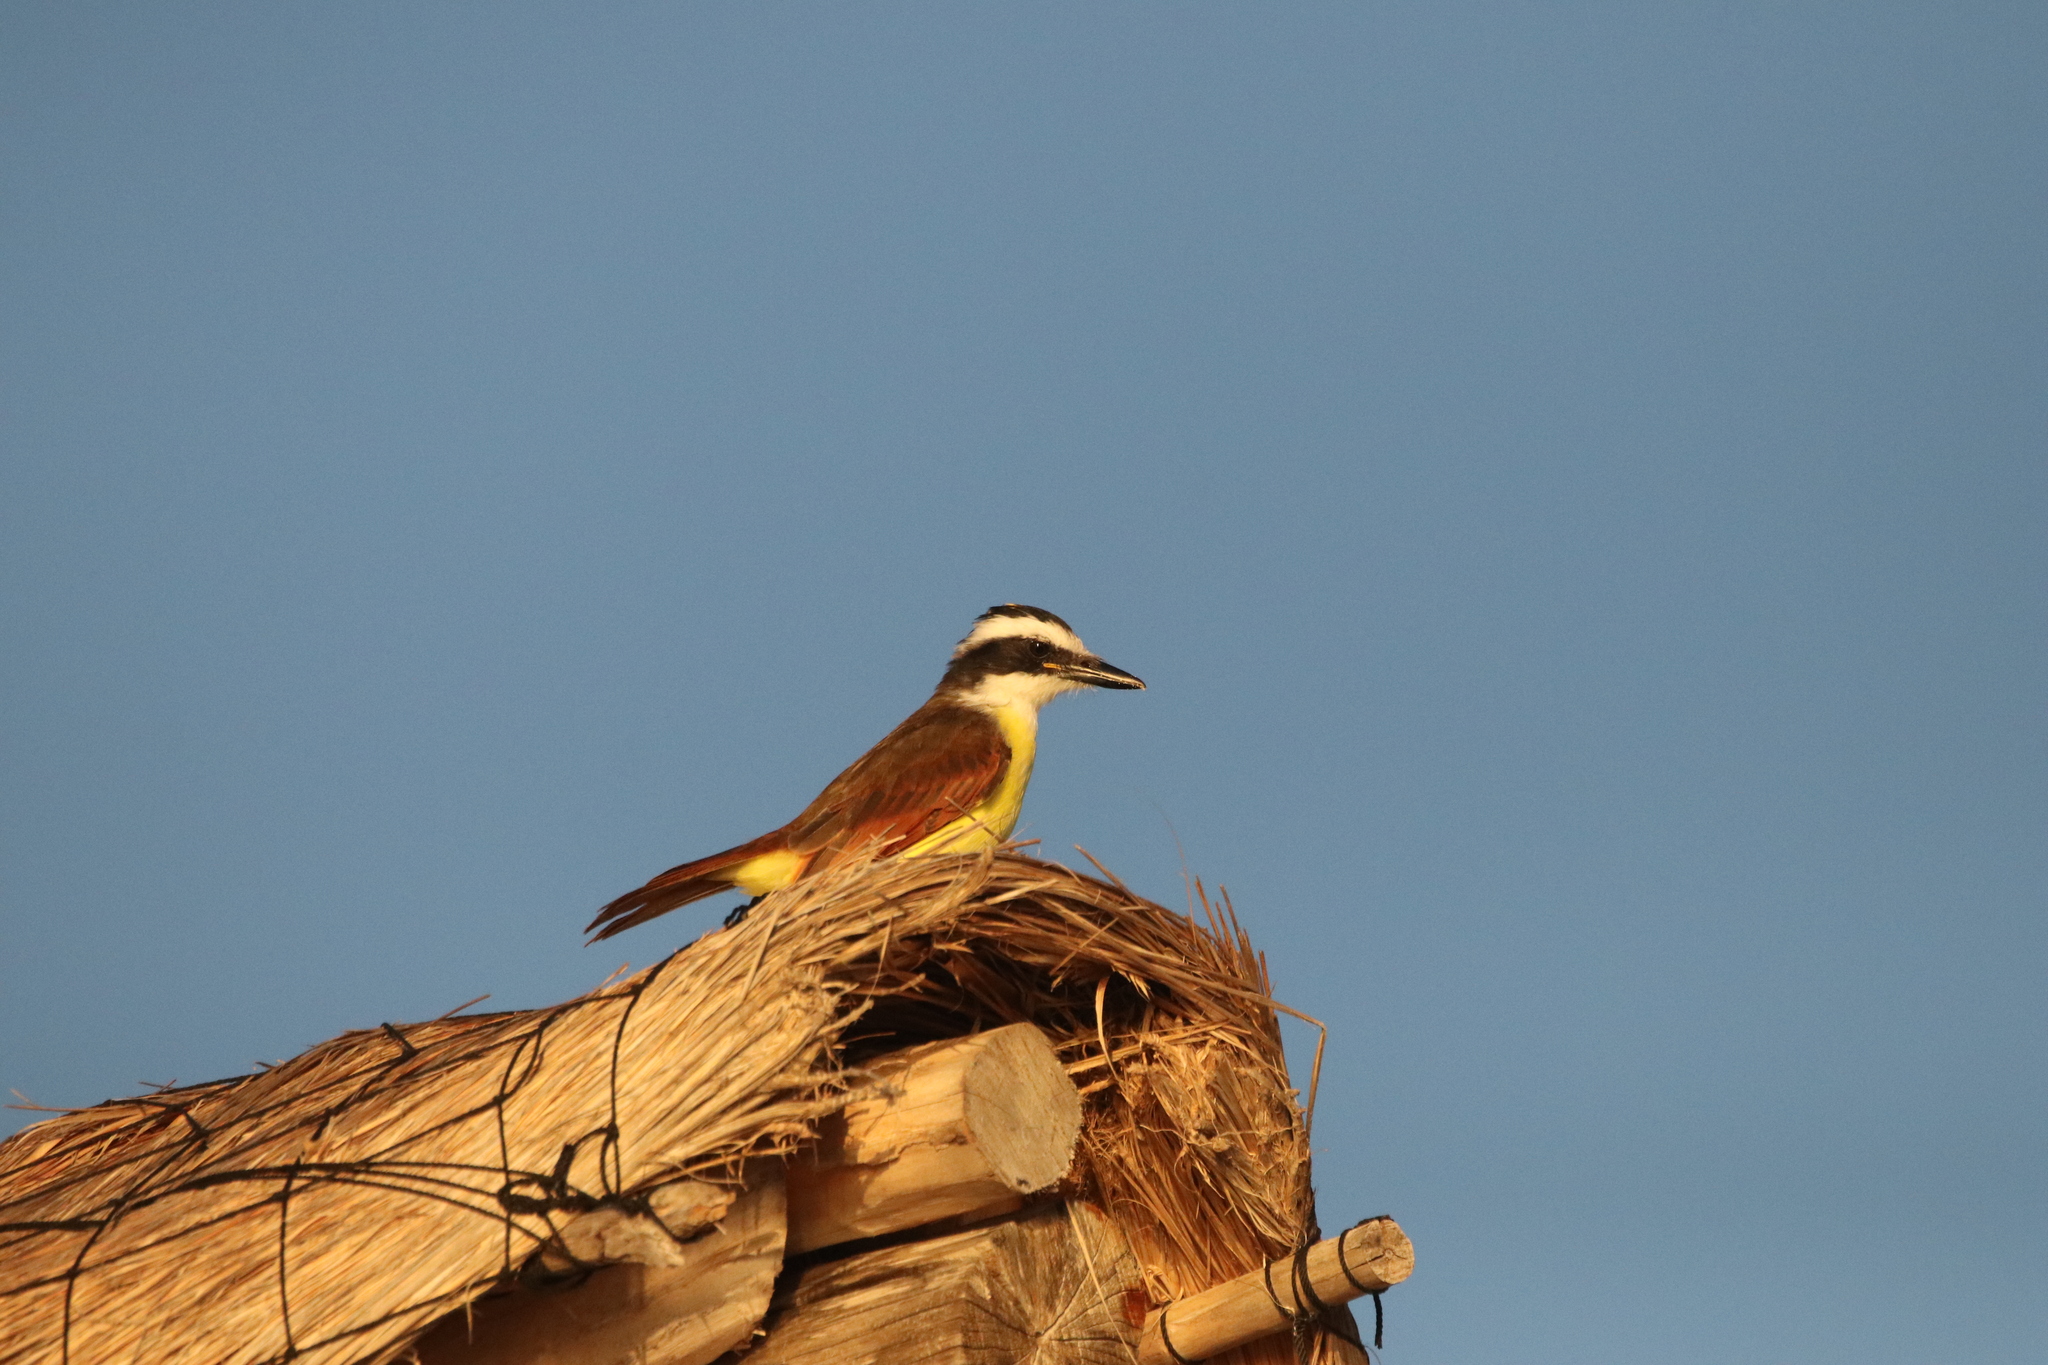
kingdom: Animalia
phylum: Chordata
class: Aves
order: Passeriformes
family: Tyrannidae
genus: Pitangus
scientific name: Pitangus sulphuratus
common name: Great kiskadee
